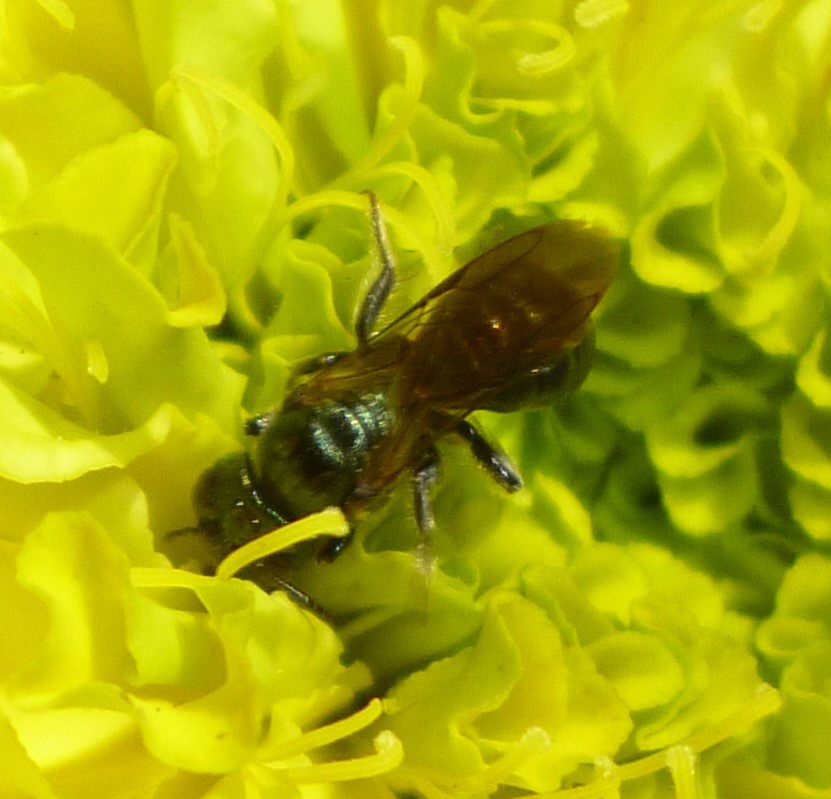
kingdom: Animalia
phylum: Arthropoda
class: Insecta
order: Hymenoptera
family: Apidae
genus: Zadontomerus
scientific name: Zadontomerus
